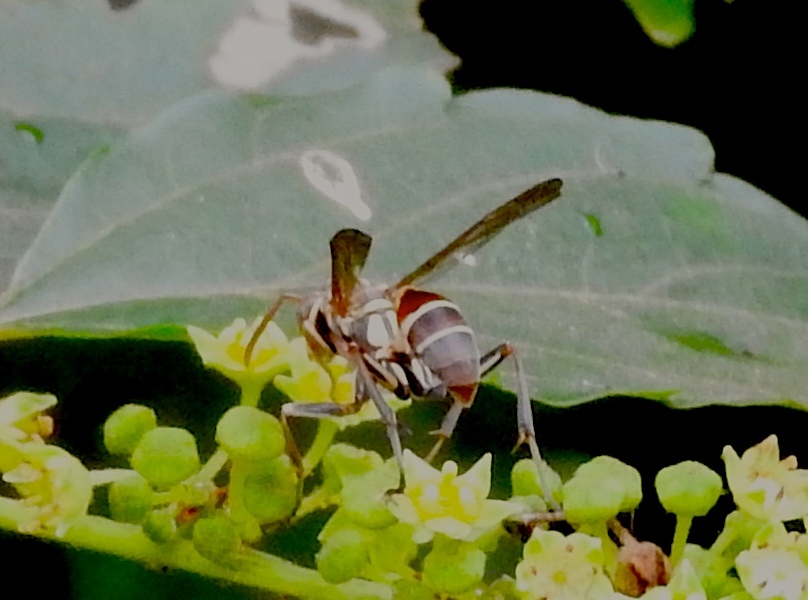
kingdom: Animalia
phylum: Arthropoda
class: Insecta
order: Hymenoptera
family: Vespidae
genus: Mischocyttarus
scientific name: Mischocyttarus
